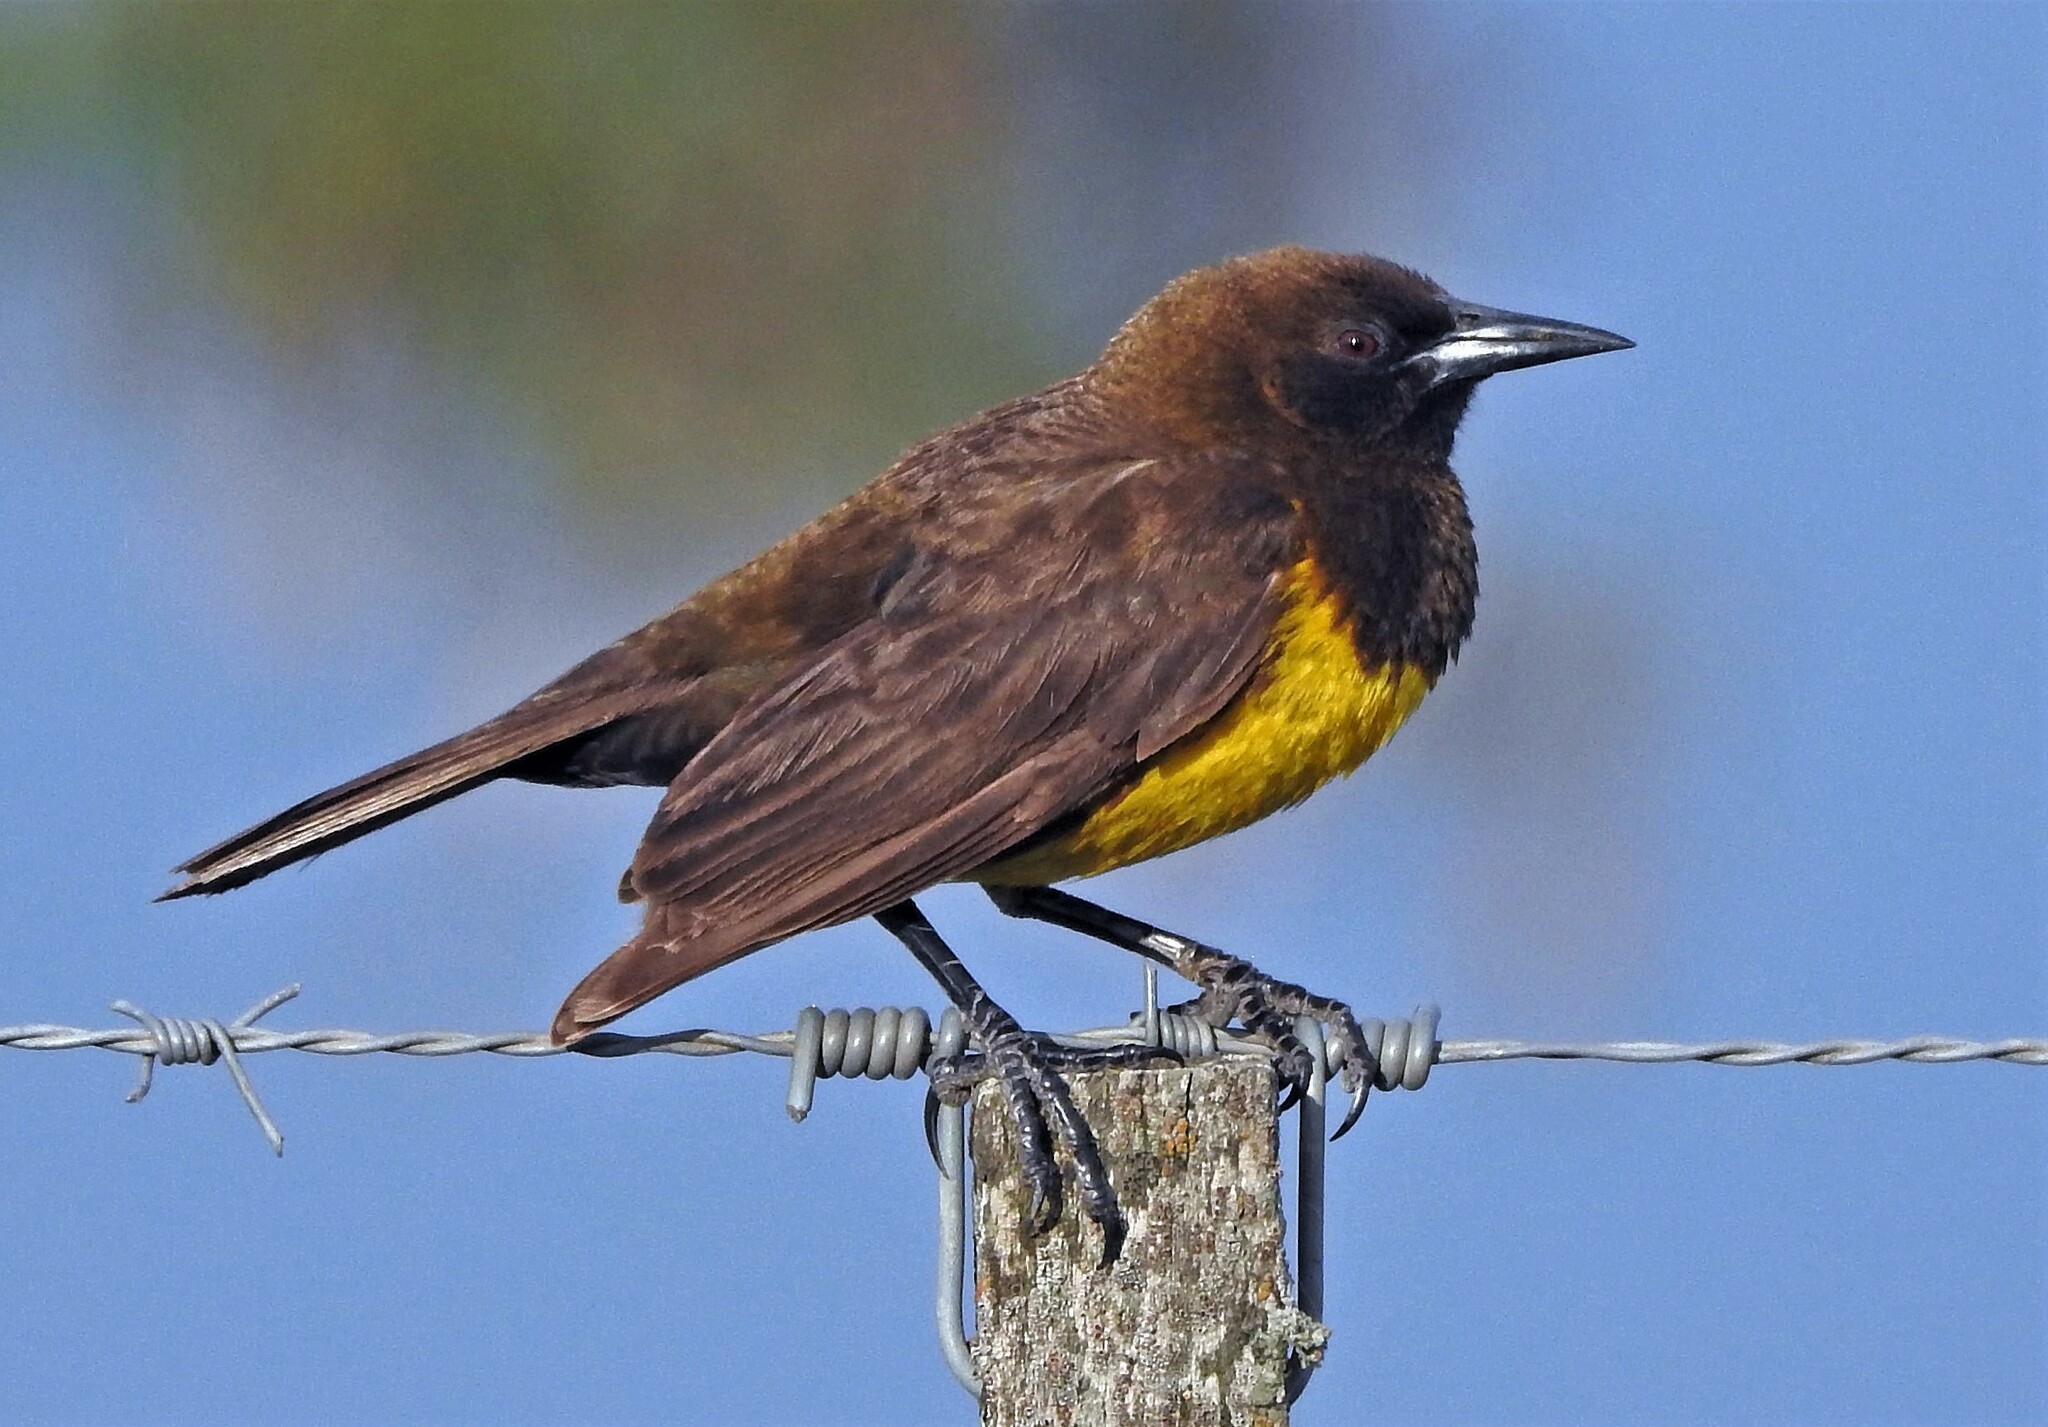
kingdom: Animalia
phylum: Chordata
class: Aves
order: Passeriformes
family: Icteridae
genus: Pseudoleistes
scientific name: Pseudoleistes virescens
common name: Brown-and-yellow marshbird
